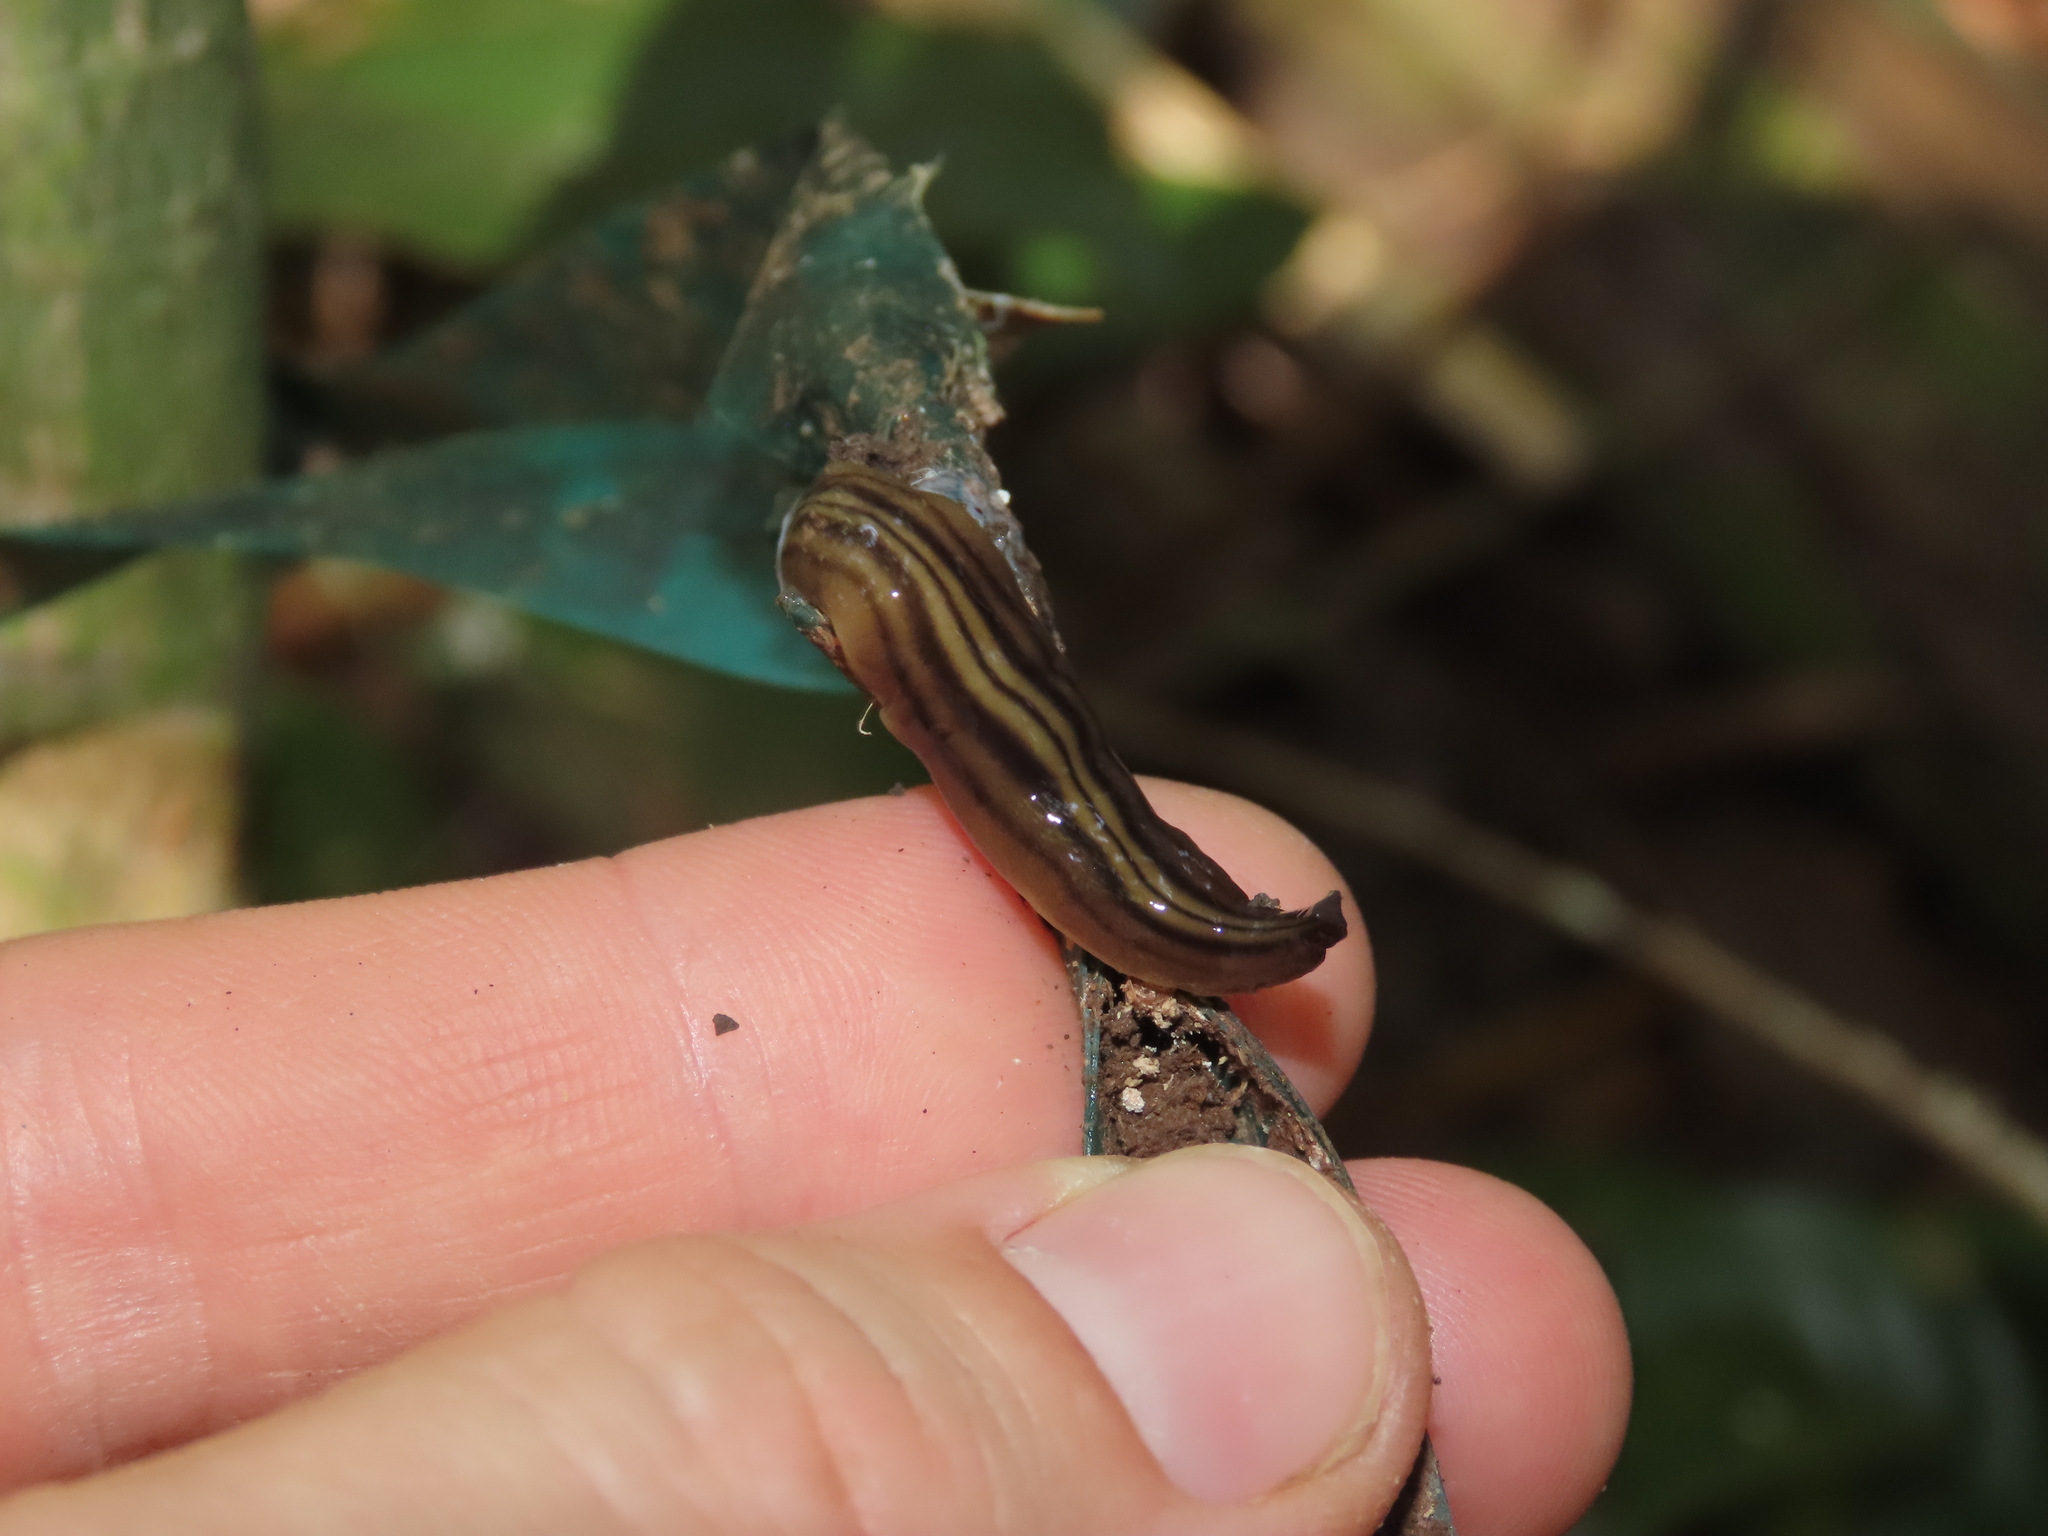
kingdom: Animalia
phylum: Platyhelminthes
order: Tricladida
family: Geoplanidae
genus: Notogynaphallia
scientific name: Notogynaphallia quinquestriata
